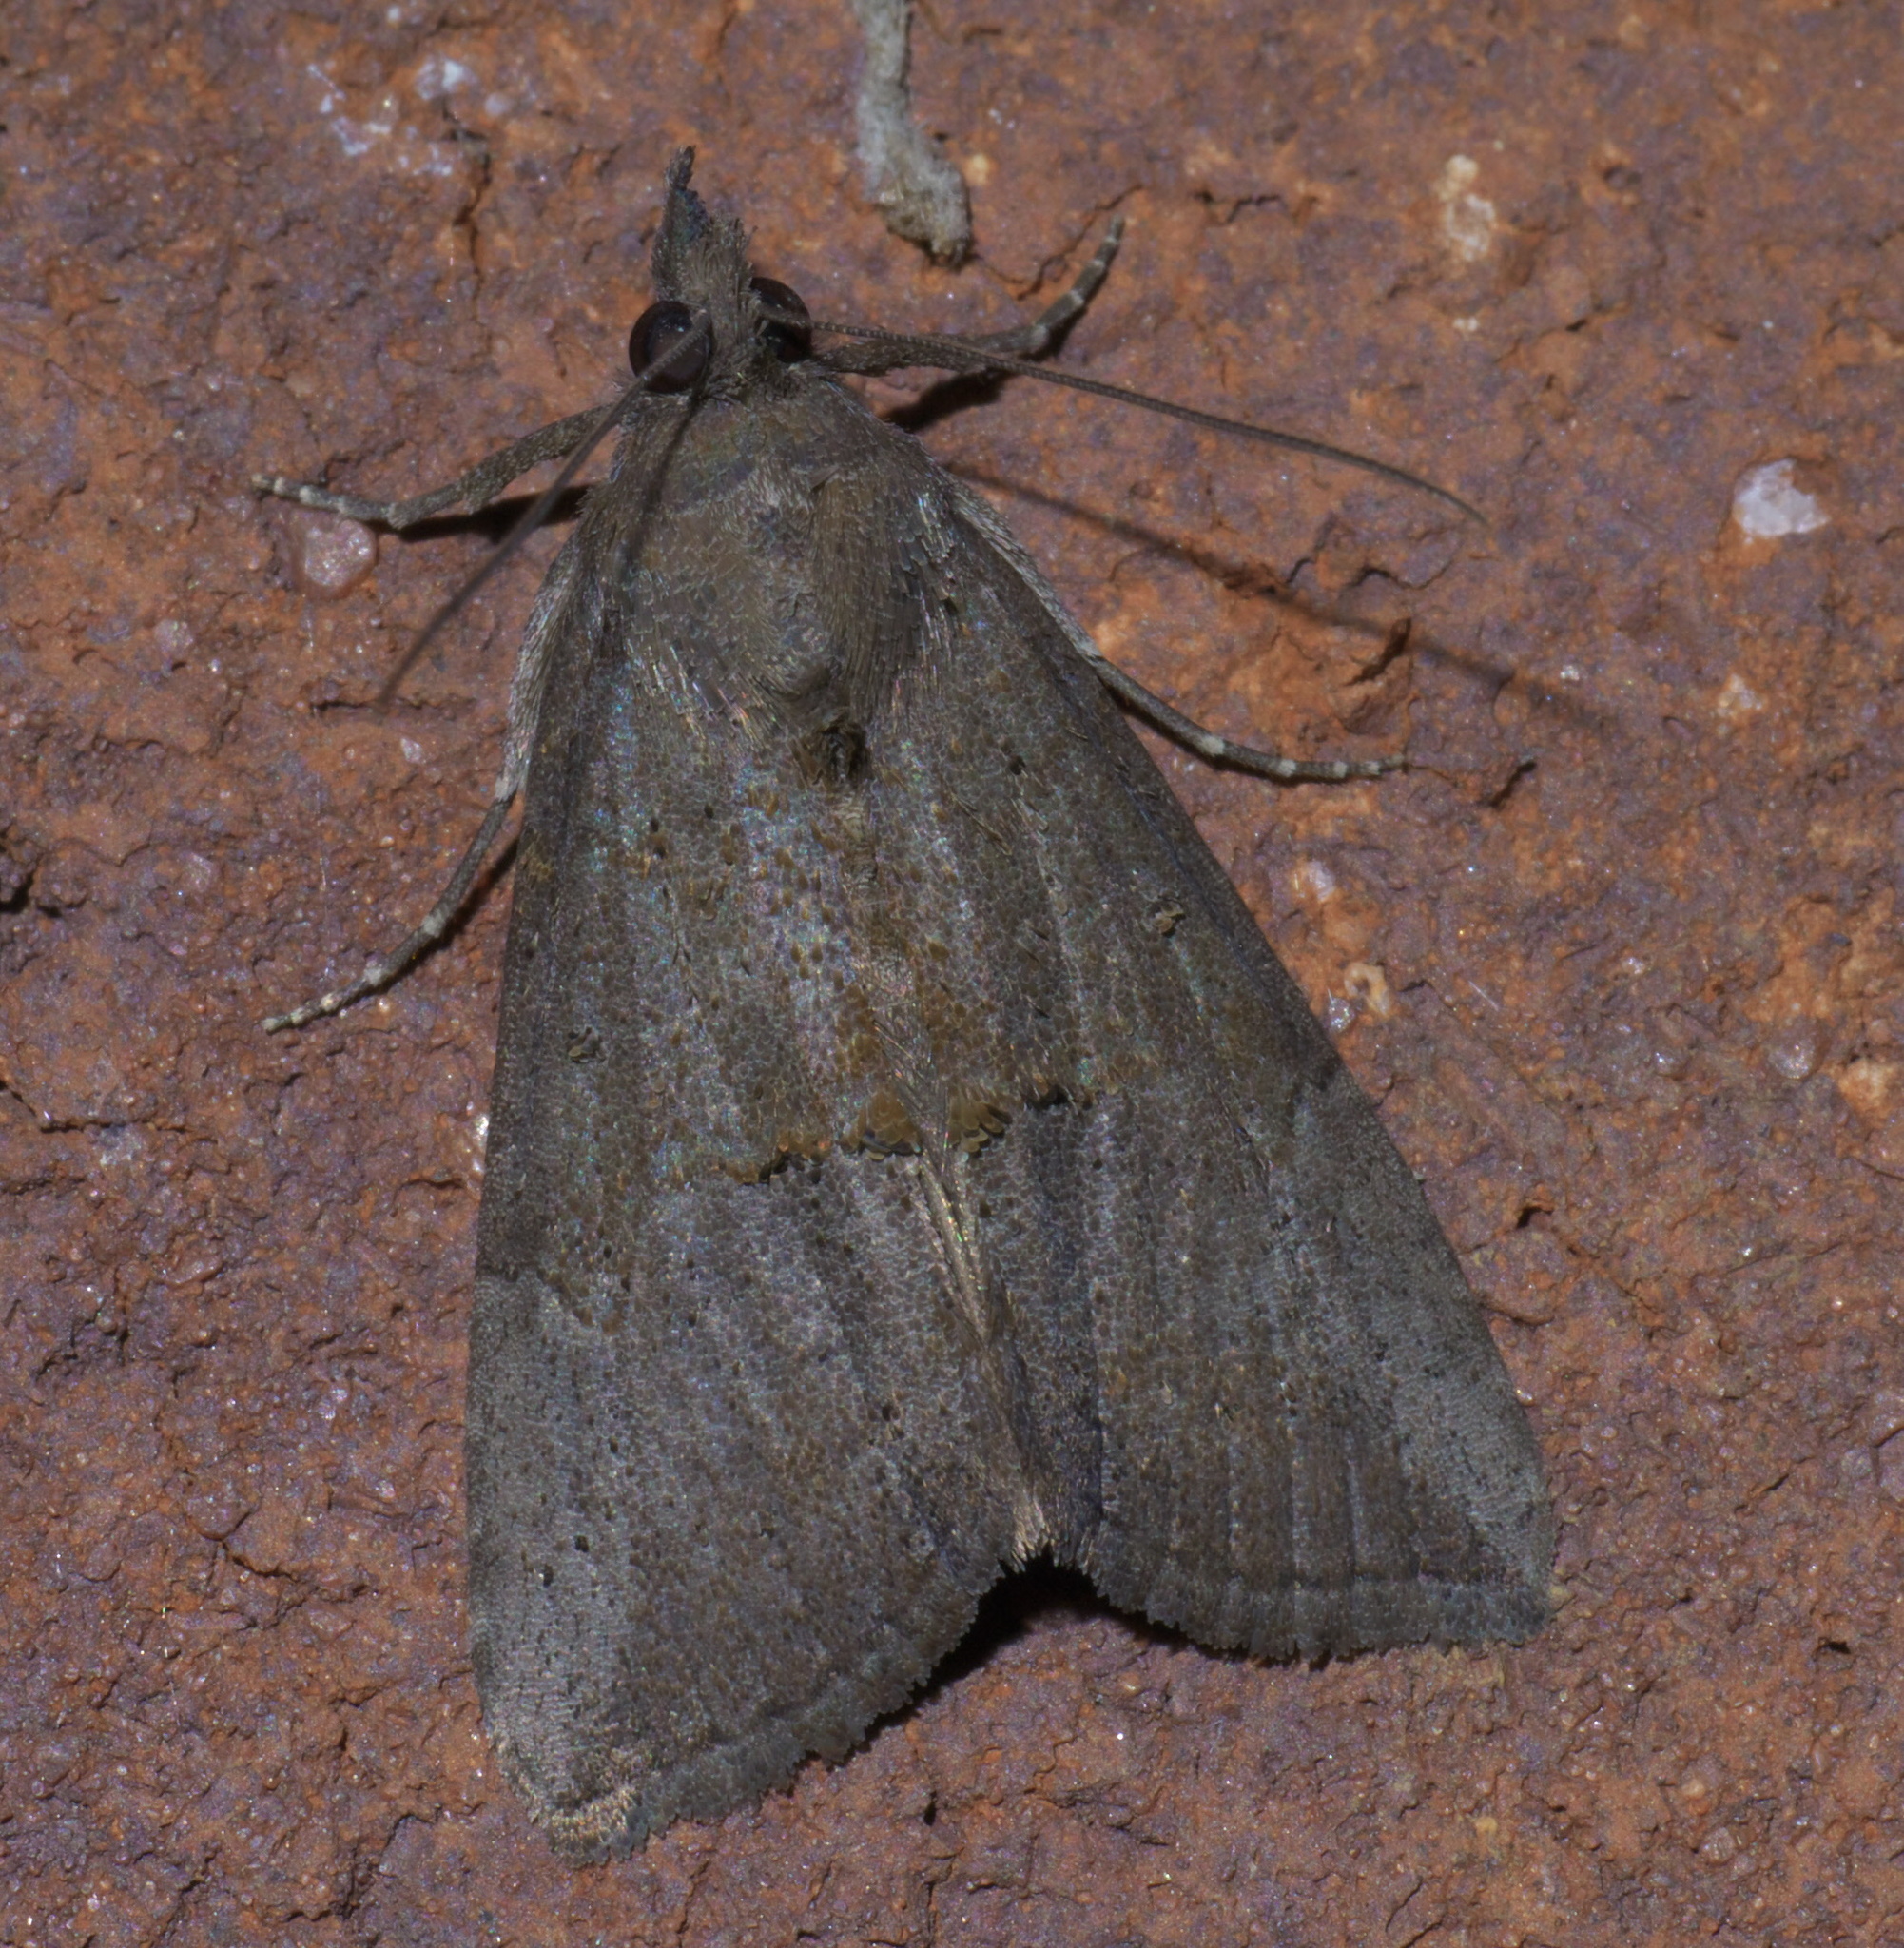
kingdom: Animalia
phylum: Arthropoda
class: Insecta
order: Lepidoptera
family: Erebidae
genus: Hypena
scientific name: Hypena scabra
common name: Green cloverworm
